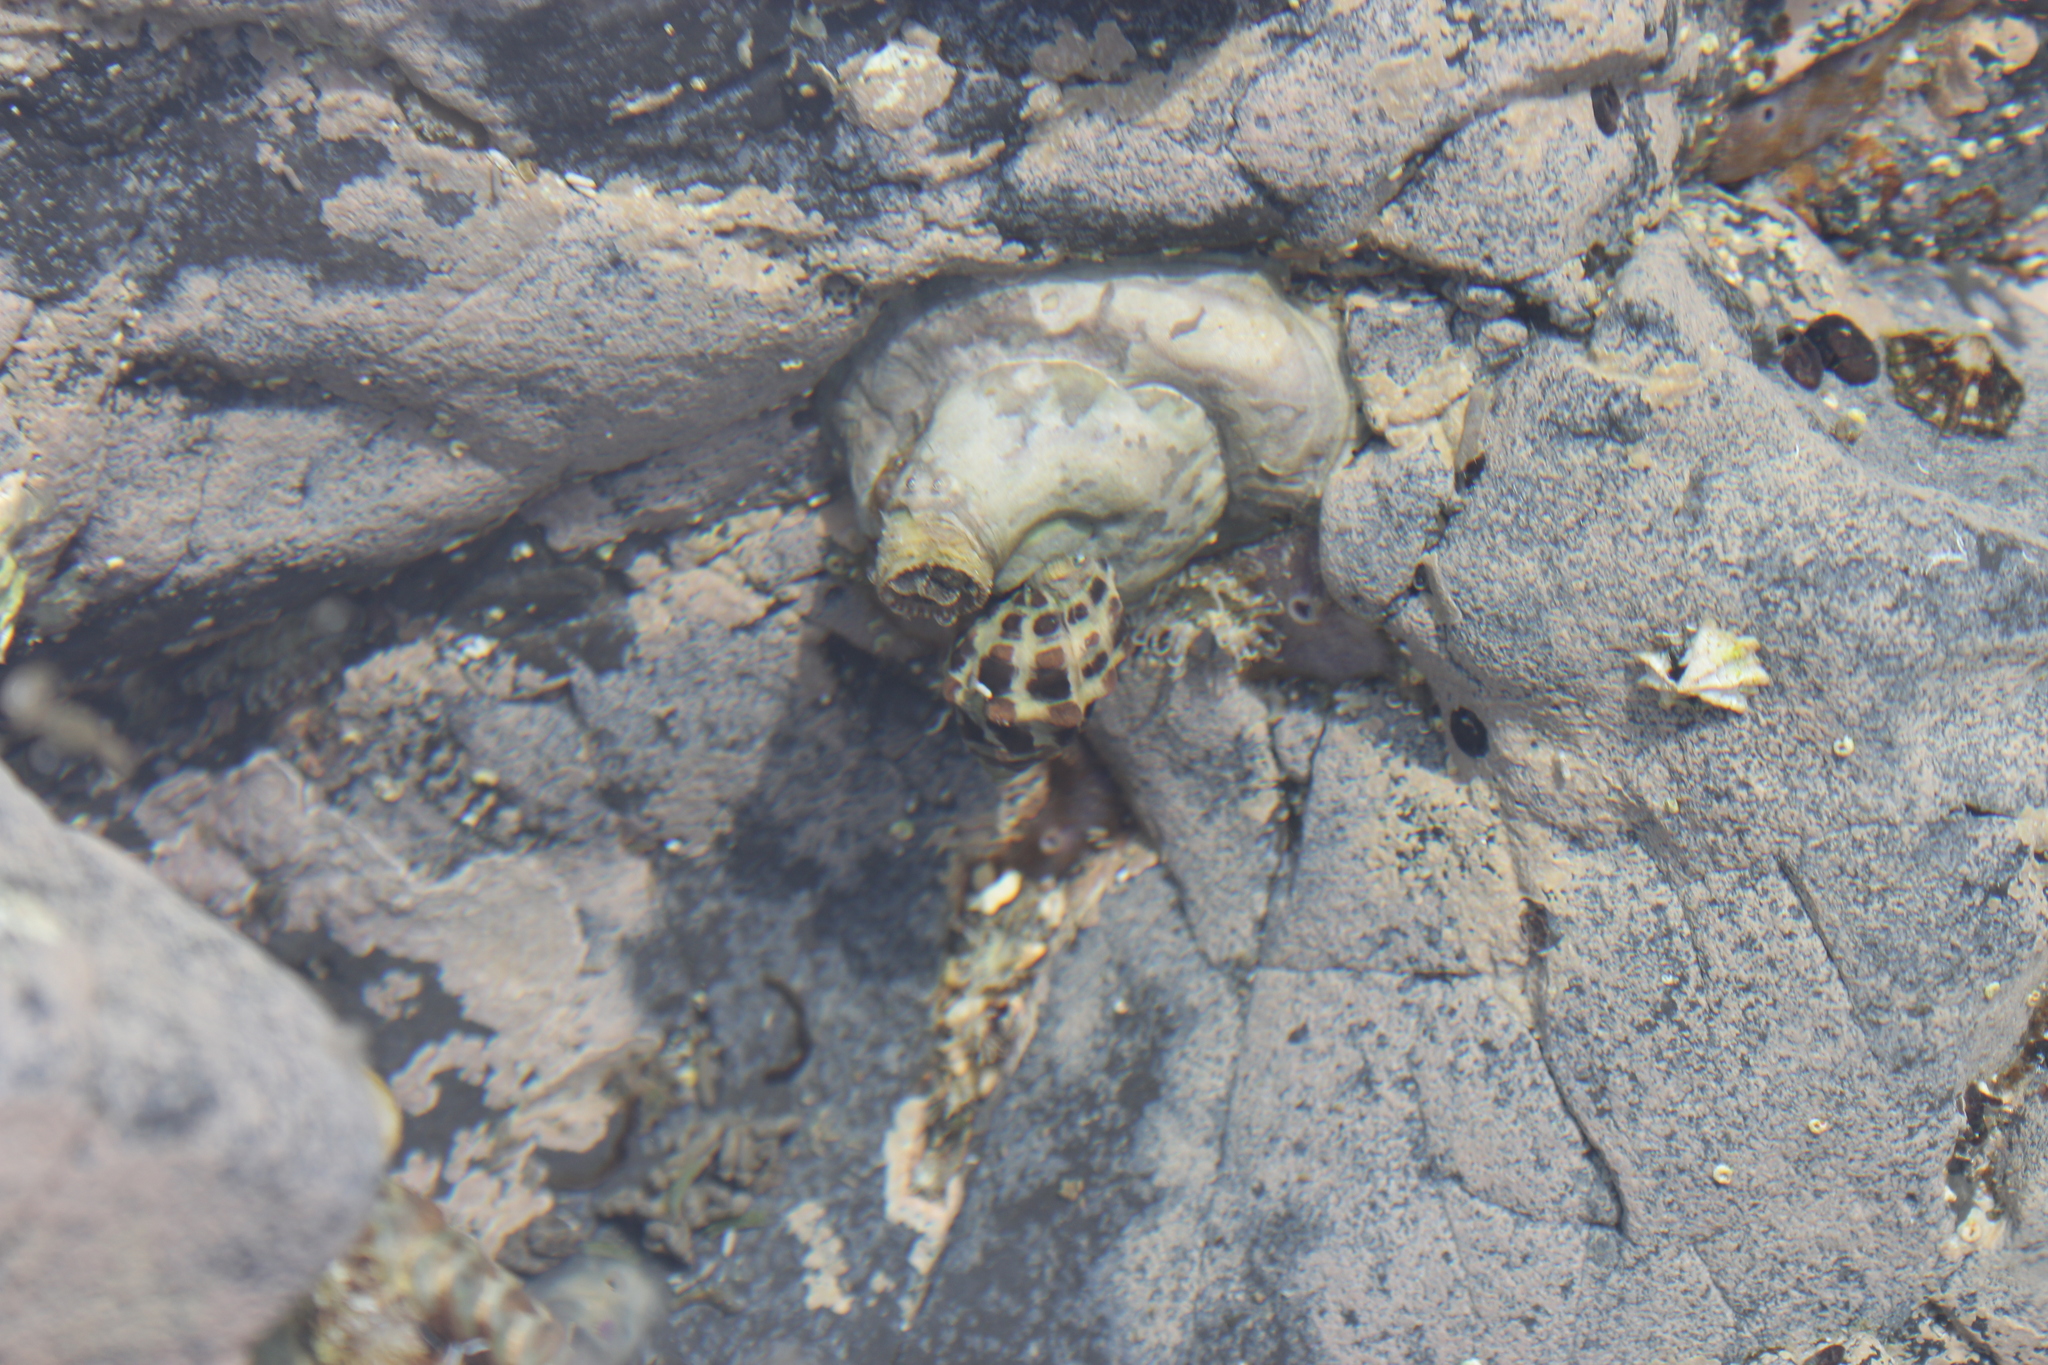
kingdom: Animalia
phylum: Mollusca
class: Gastropoda
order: Neogastropoda
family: Muricidae
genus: Tenguella
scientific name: Tenguella musiva
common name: Mosaic purpura
